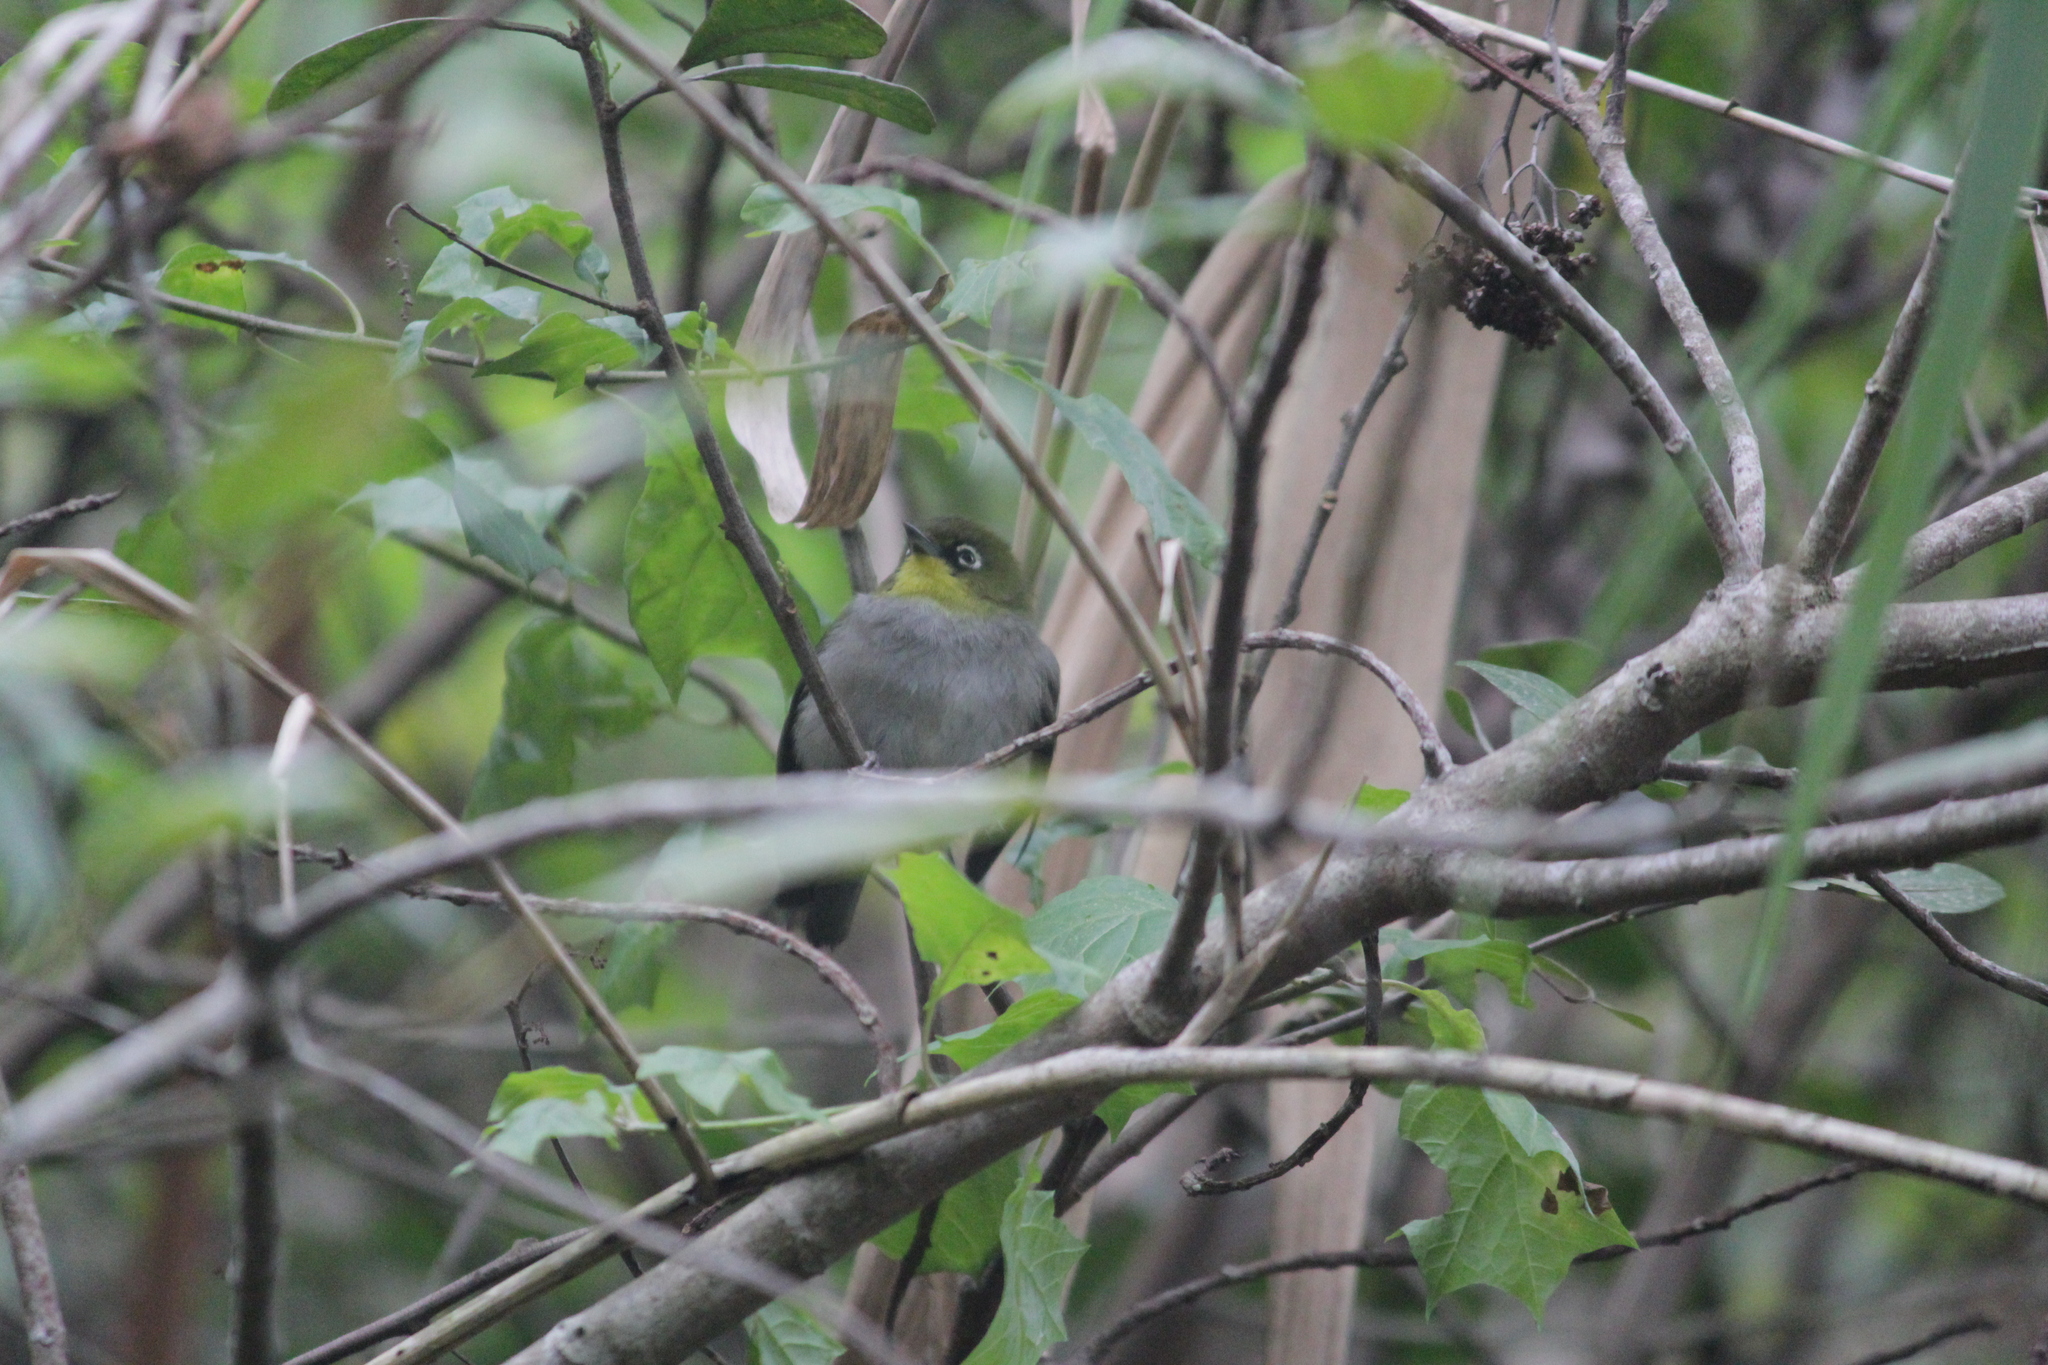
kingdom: Animalia
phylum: Chordata
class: Aves
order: Passeriformes
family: Zosteropidae
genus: Zosterops
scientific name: Zosterops virens
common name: Cape white-eye
